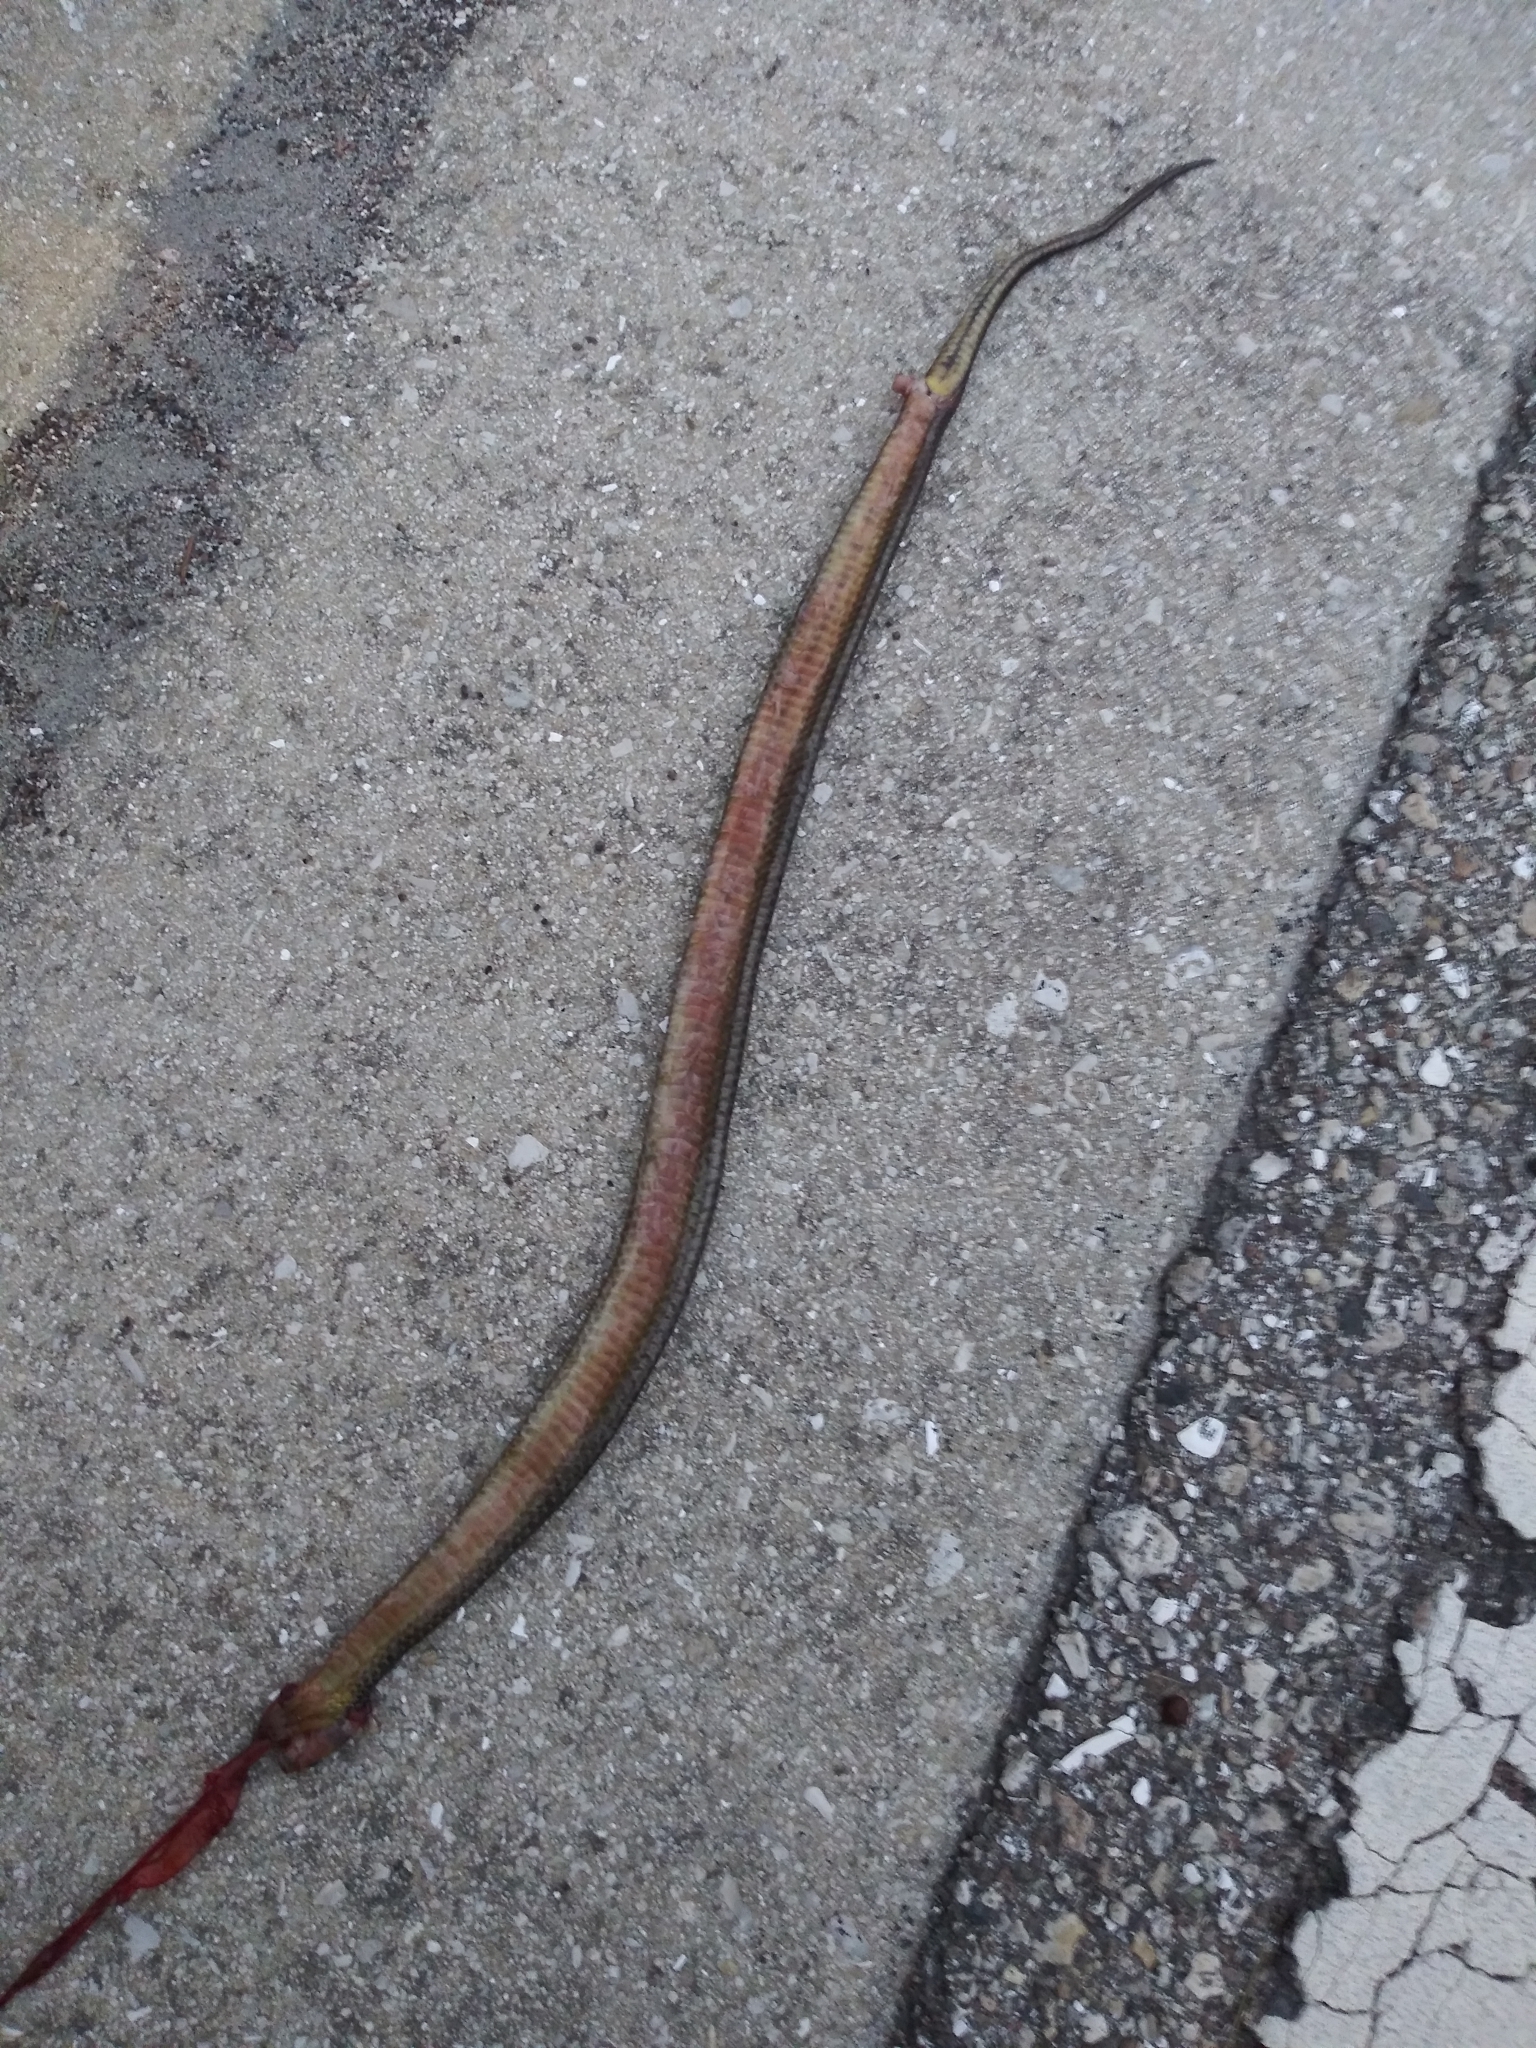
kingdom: Animalia
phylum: Chordata
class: Squamata
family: Colubridae
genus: Liodytes
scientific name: Liodytes alleni
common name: Striped crayfish snake
